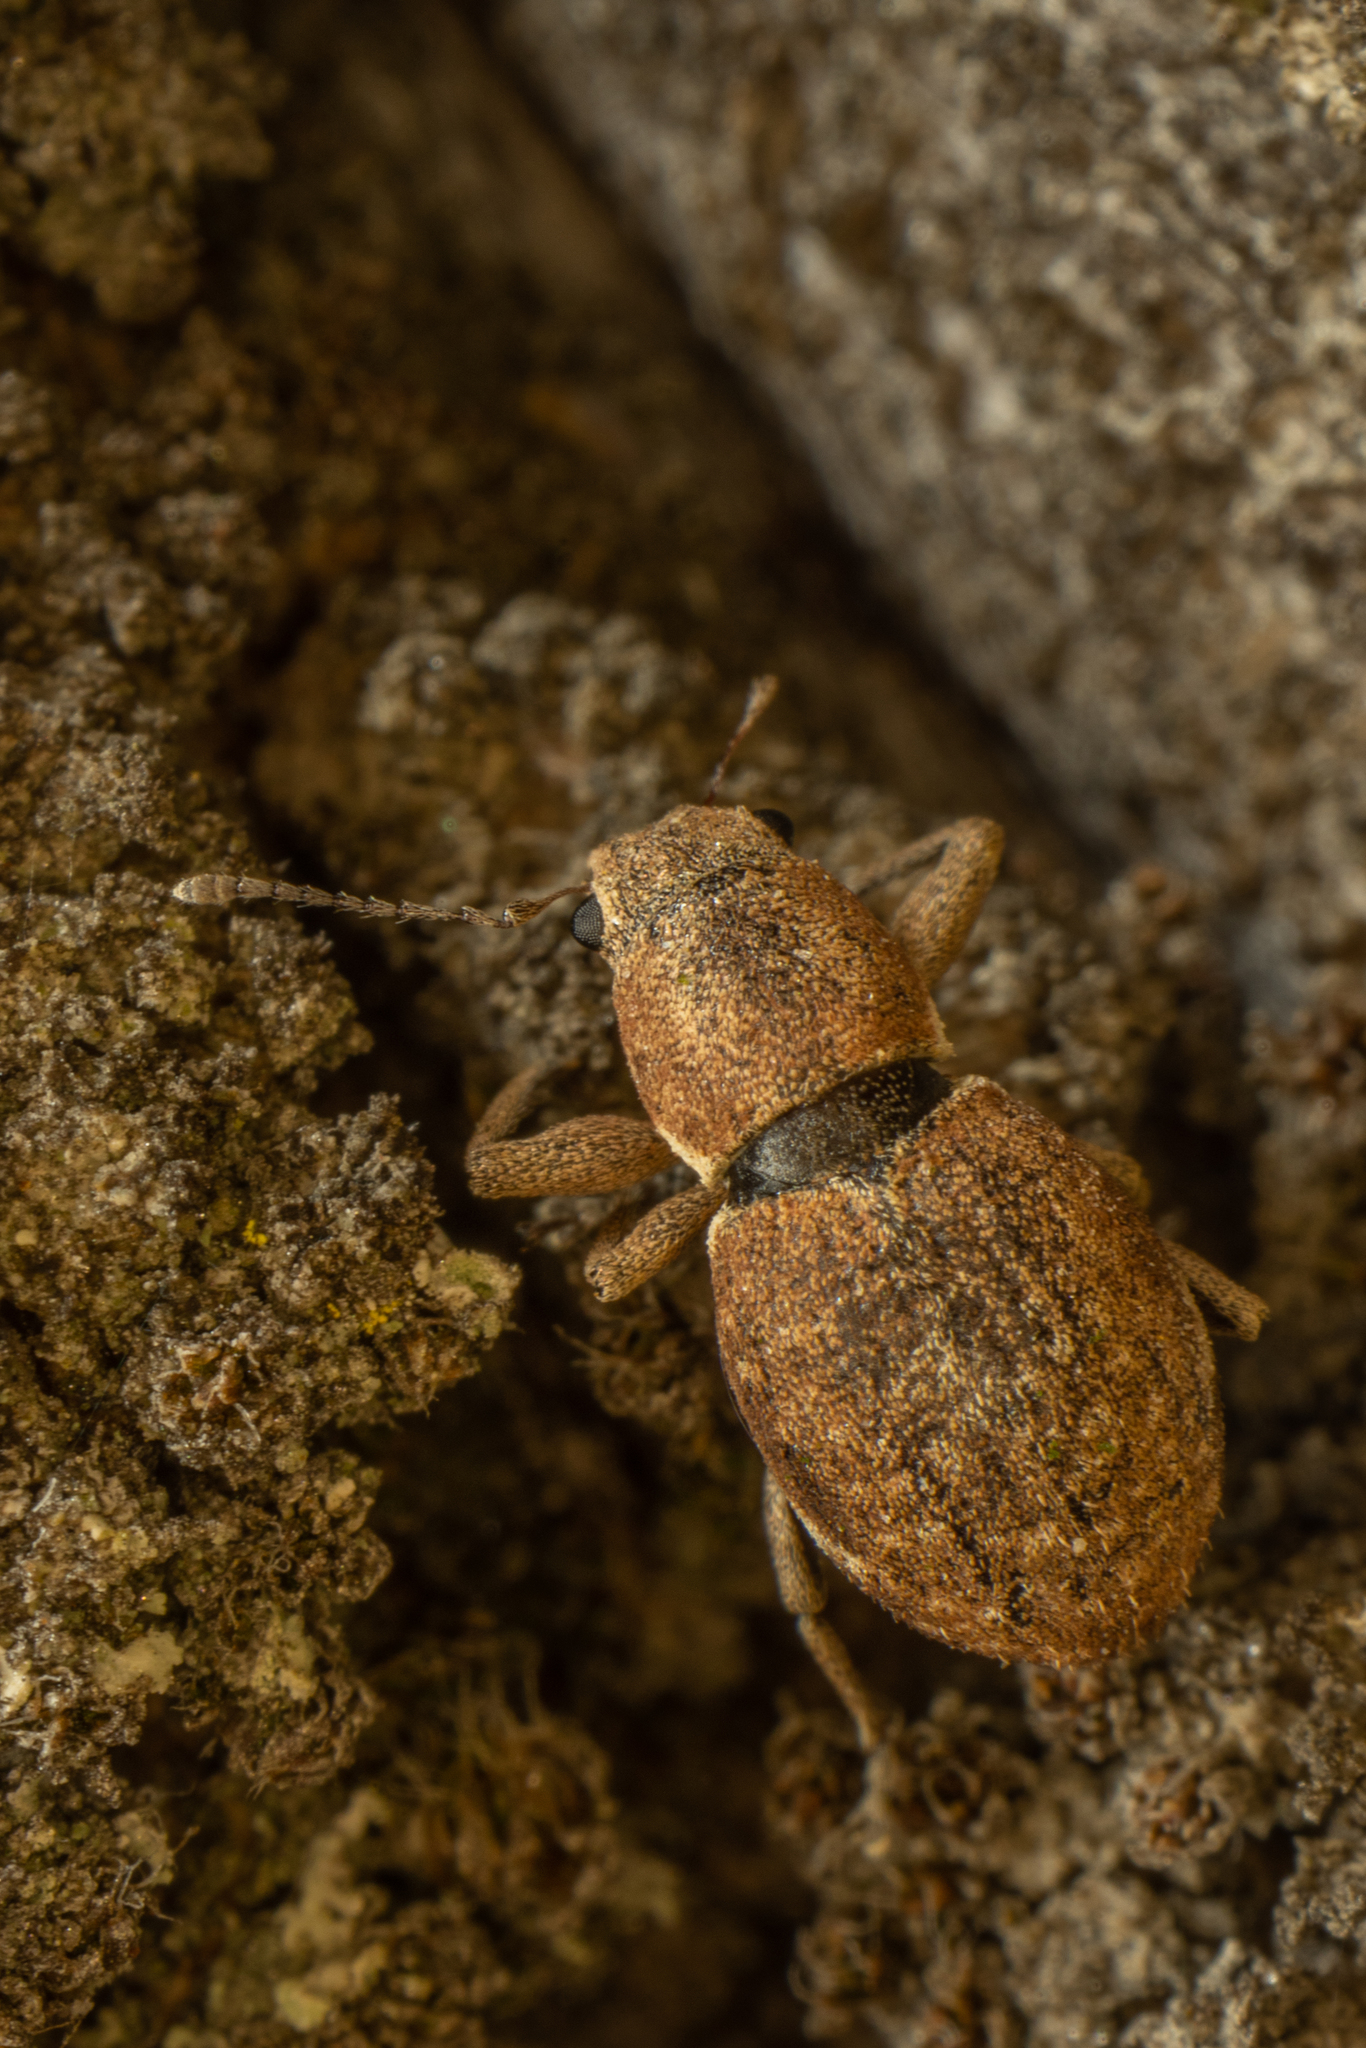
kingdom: Animalia
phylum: Arthropoda
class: Insecta
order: Coleoptera
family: Curculionidae
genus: Naupactus
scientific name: Naupactus cervinus
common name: Fuller rose beetle
